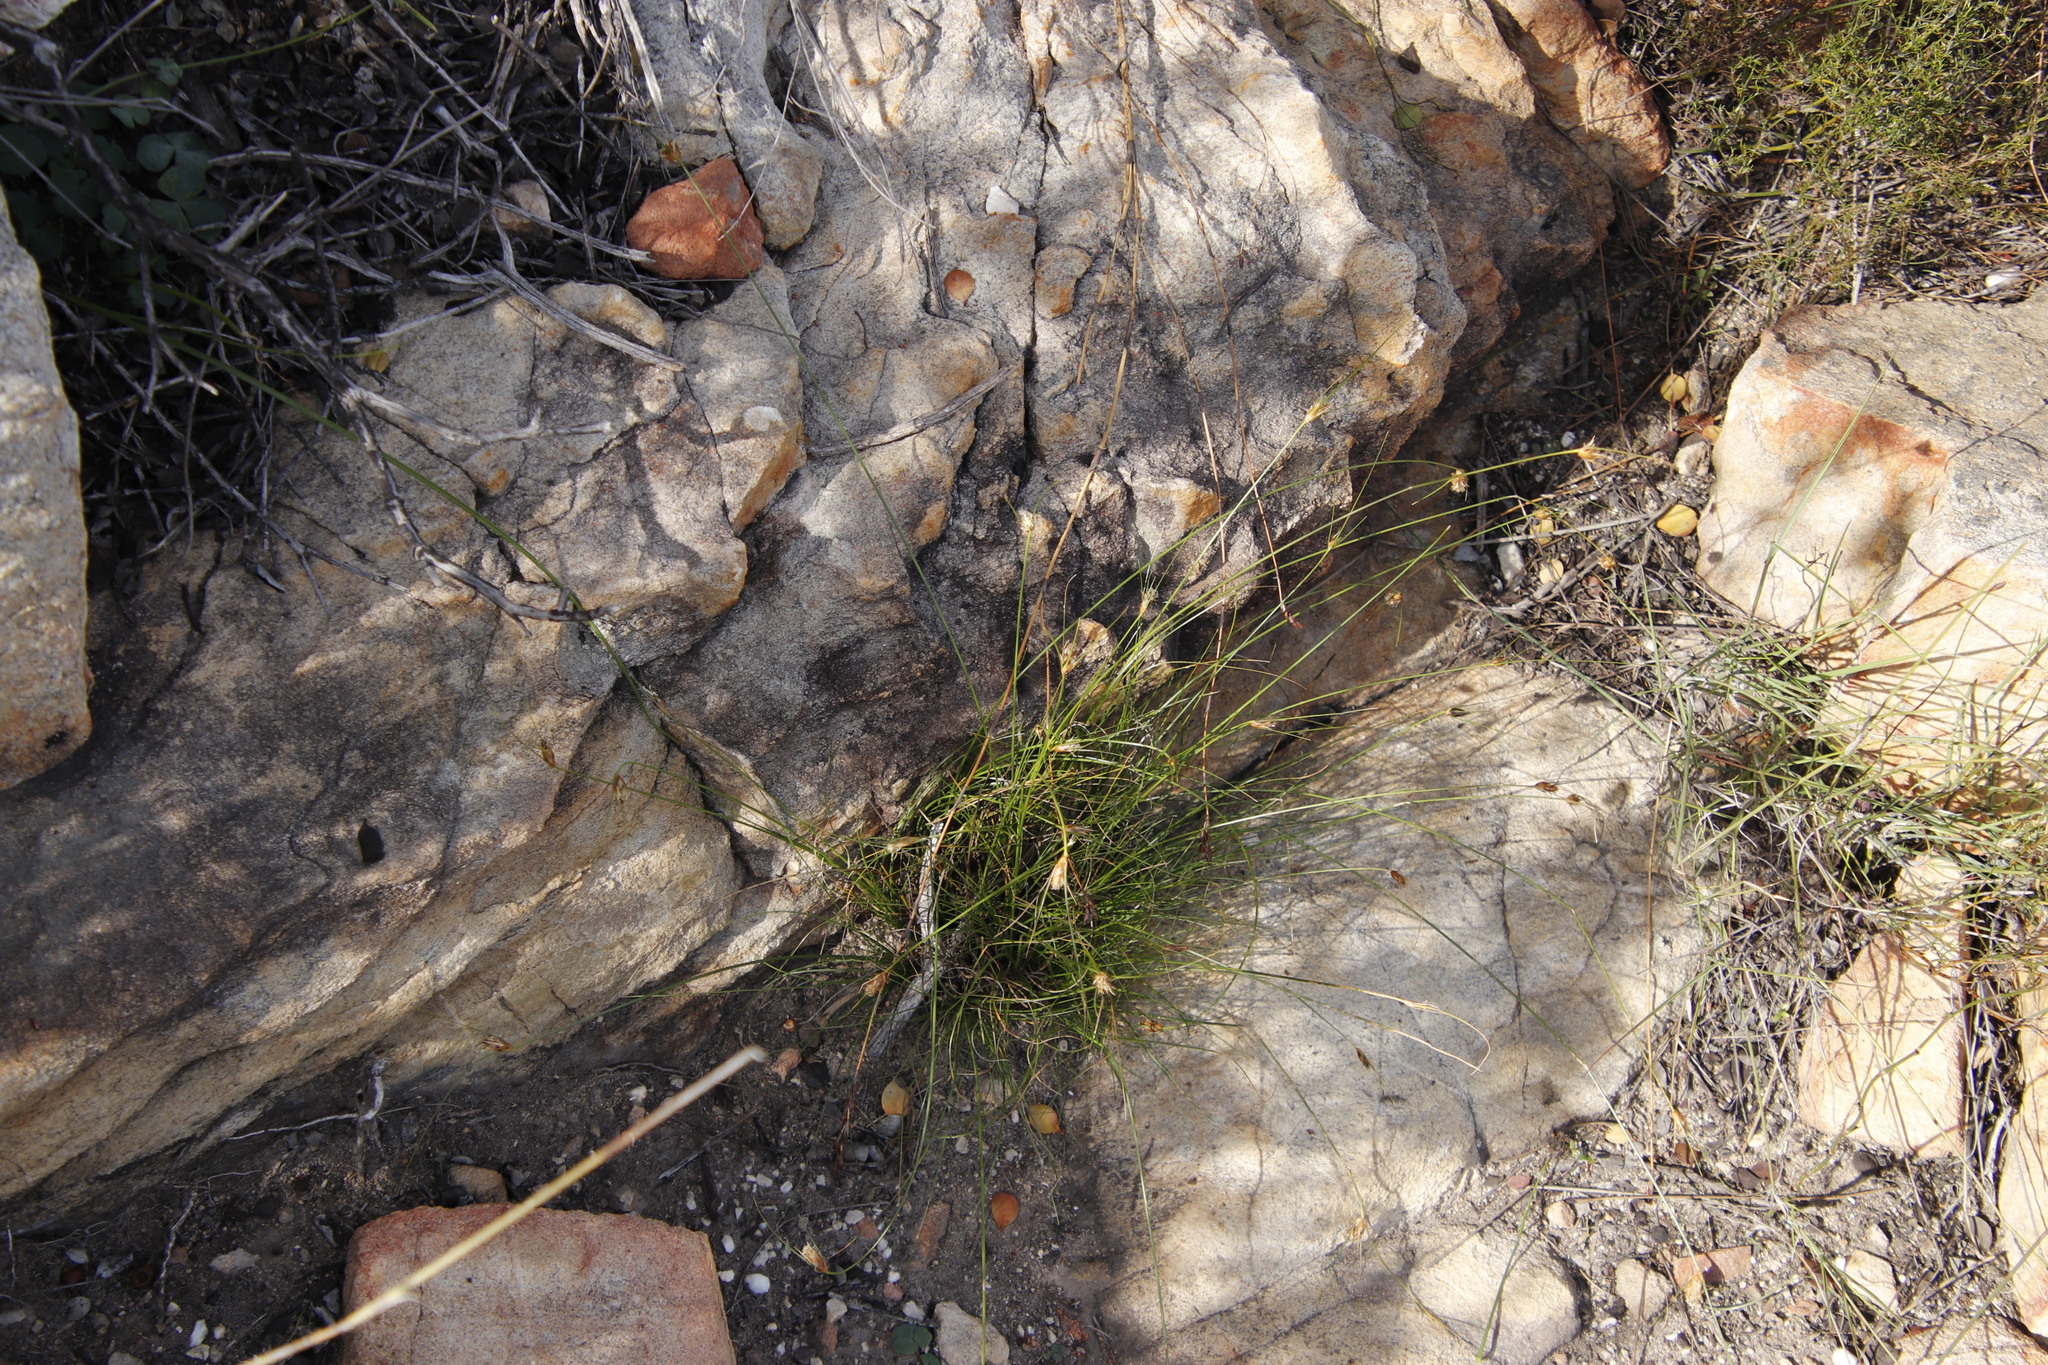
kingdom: Plantae
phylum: Tracheophyta
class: Liliopsida
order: Poales
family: Cyperaceae
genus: Ficinia
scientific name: Ficinia nigrescens
